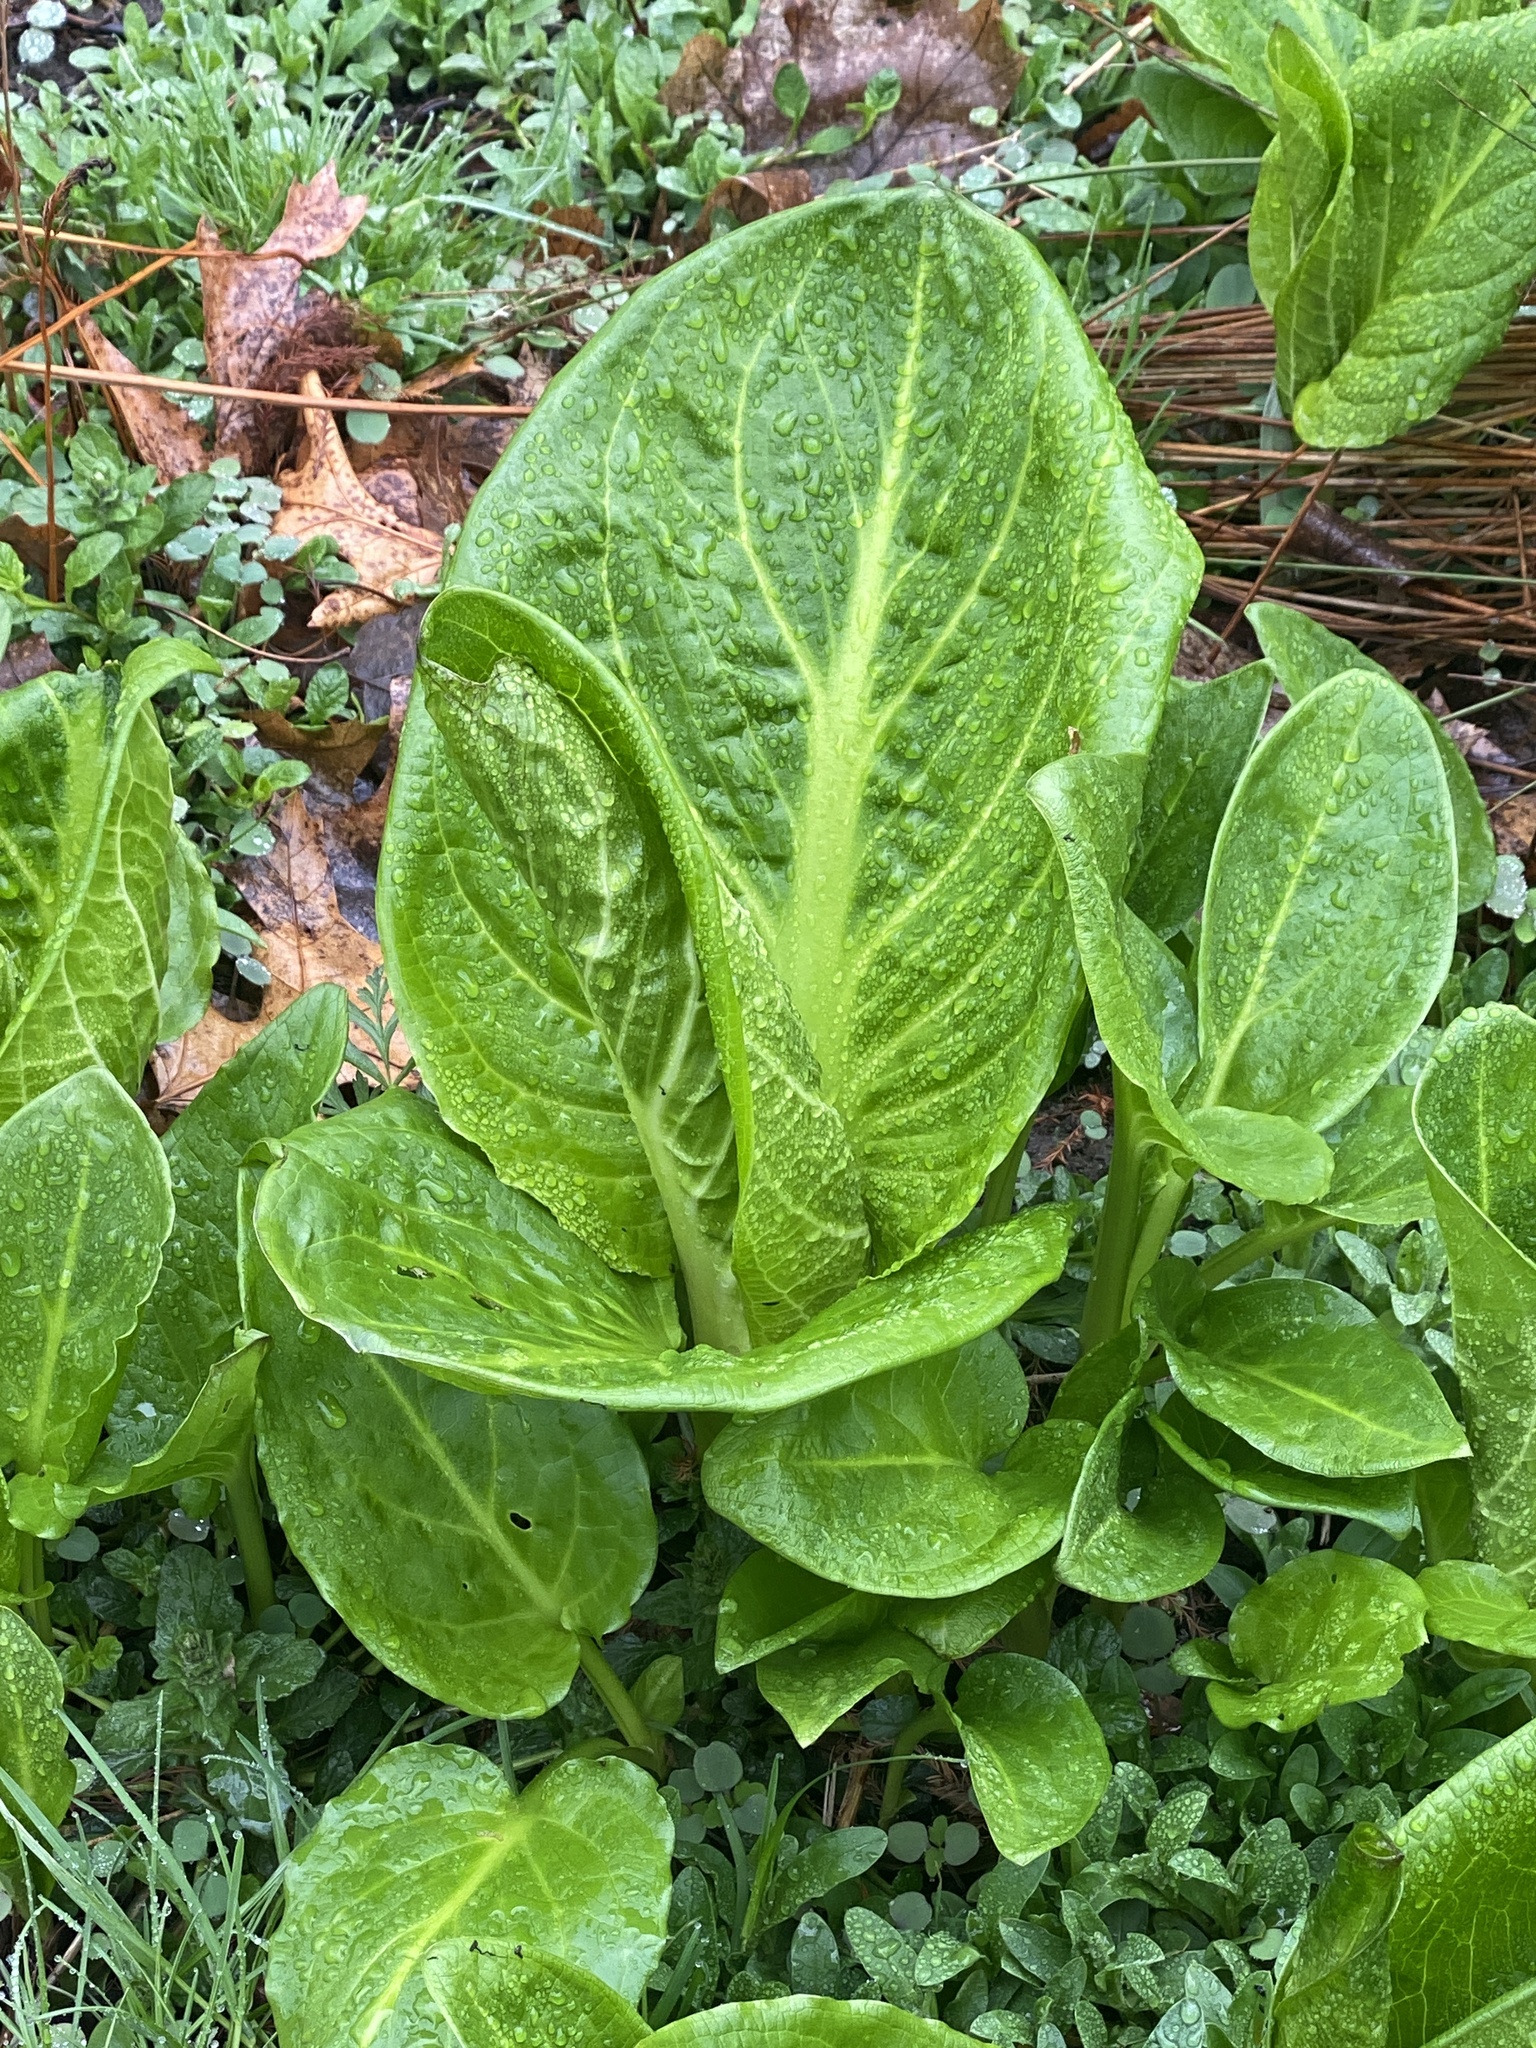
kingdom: Plantae
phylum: Tracheophyta
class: Liliopsida
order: Alismatales
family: Araceae
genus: Symplocarpus
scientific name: Symplocarpus foetidus
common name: Eastern skunk cabbage
